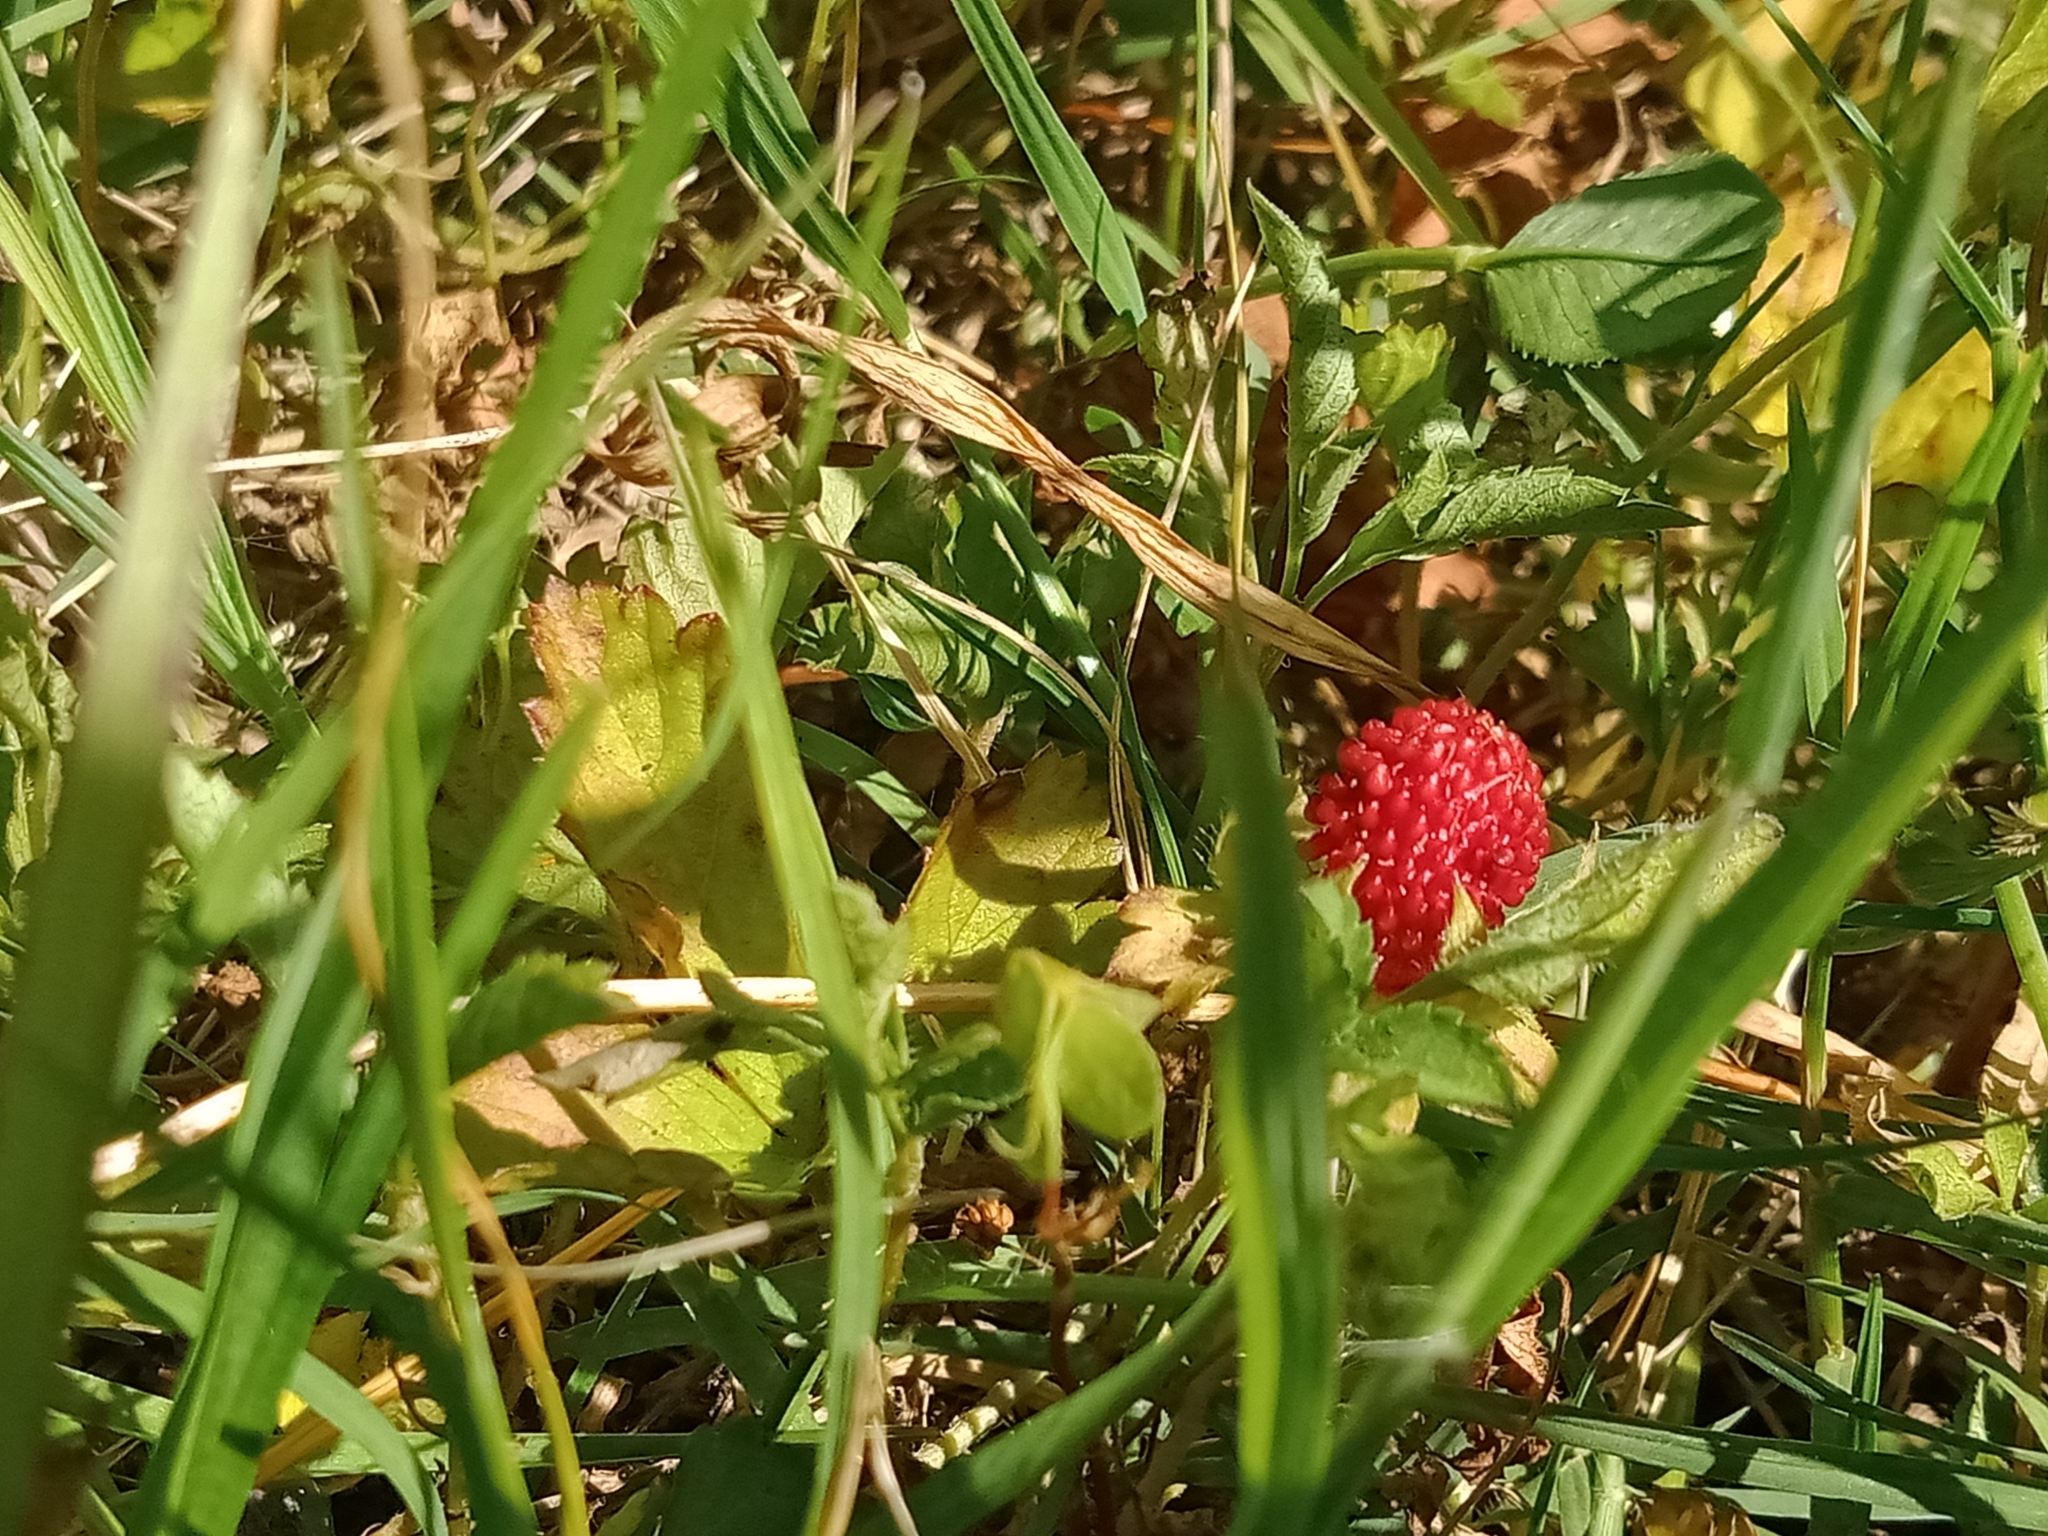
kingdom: Plantae
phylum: Tracheophyta
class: Magnoliopsida
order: Rosales
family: Rosaceae
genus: Potentilla
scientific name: Potentilla indica
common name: Yellow-flowered strawberry
